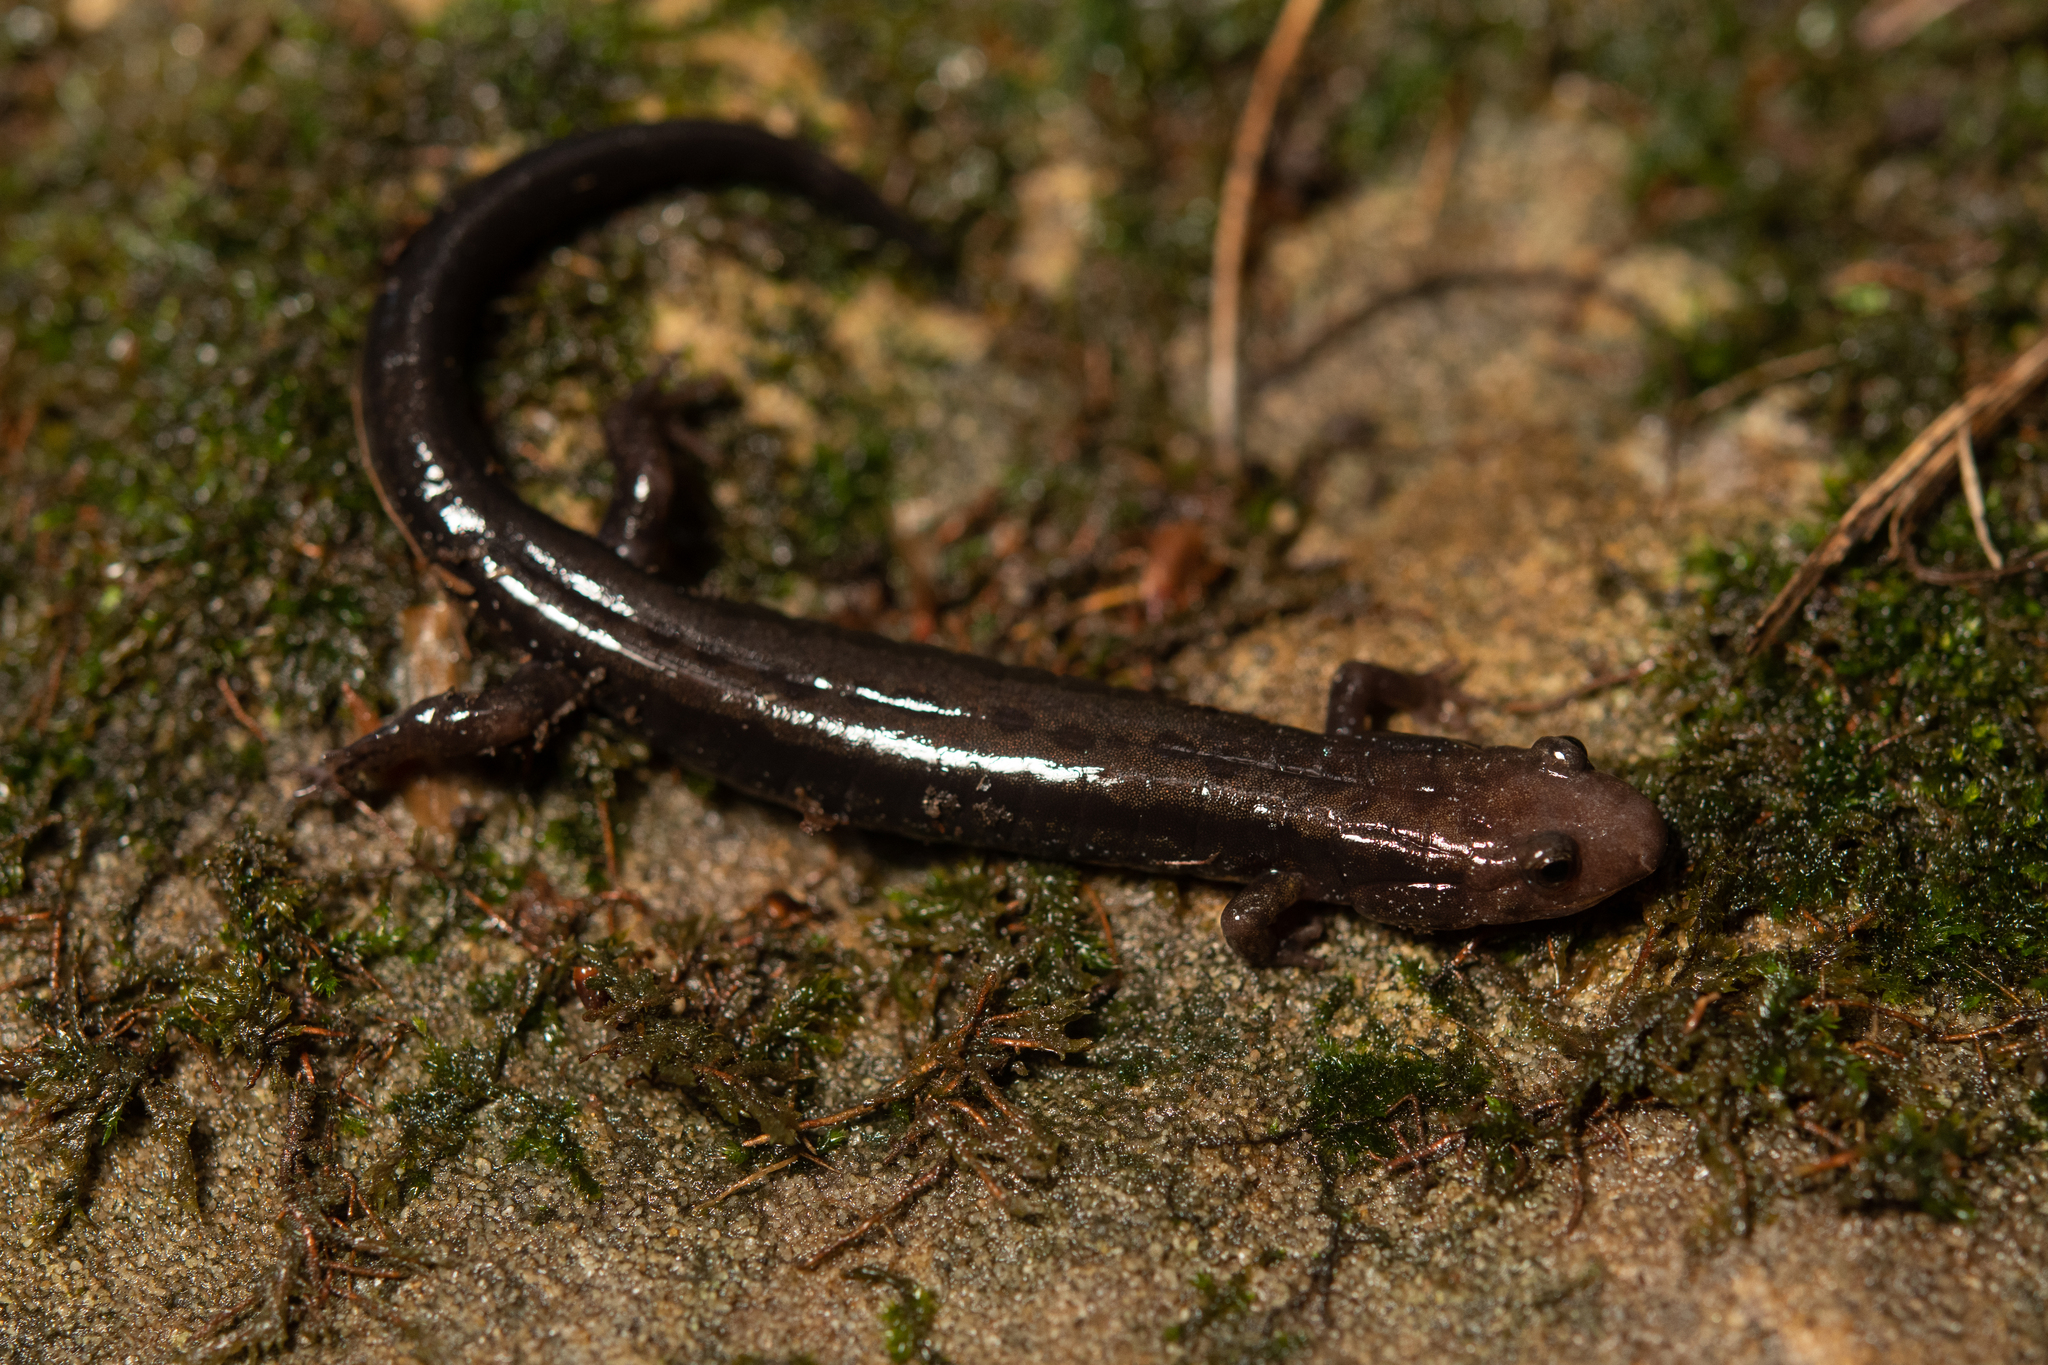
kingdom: Animalia
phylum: Chordata
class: Amphibia
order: Caudata
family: Plethodontidae
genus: Desmognathus
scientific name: Desmognathus ochrophaeus
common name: Allegheny mountain dusky salamander
